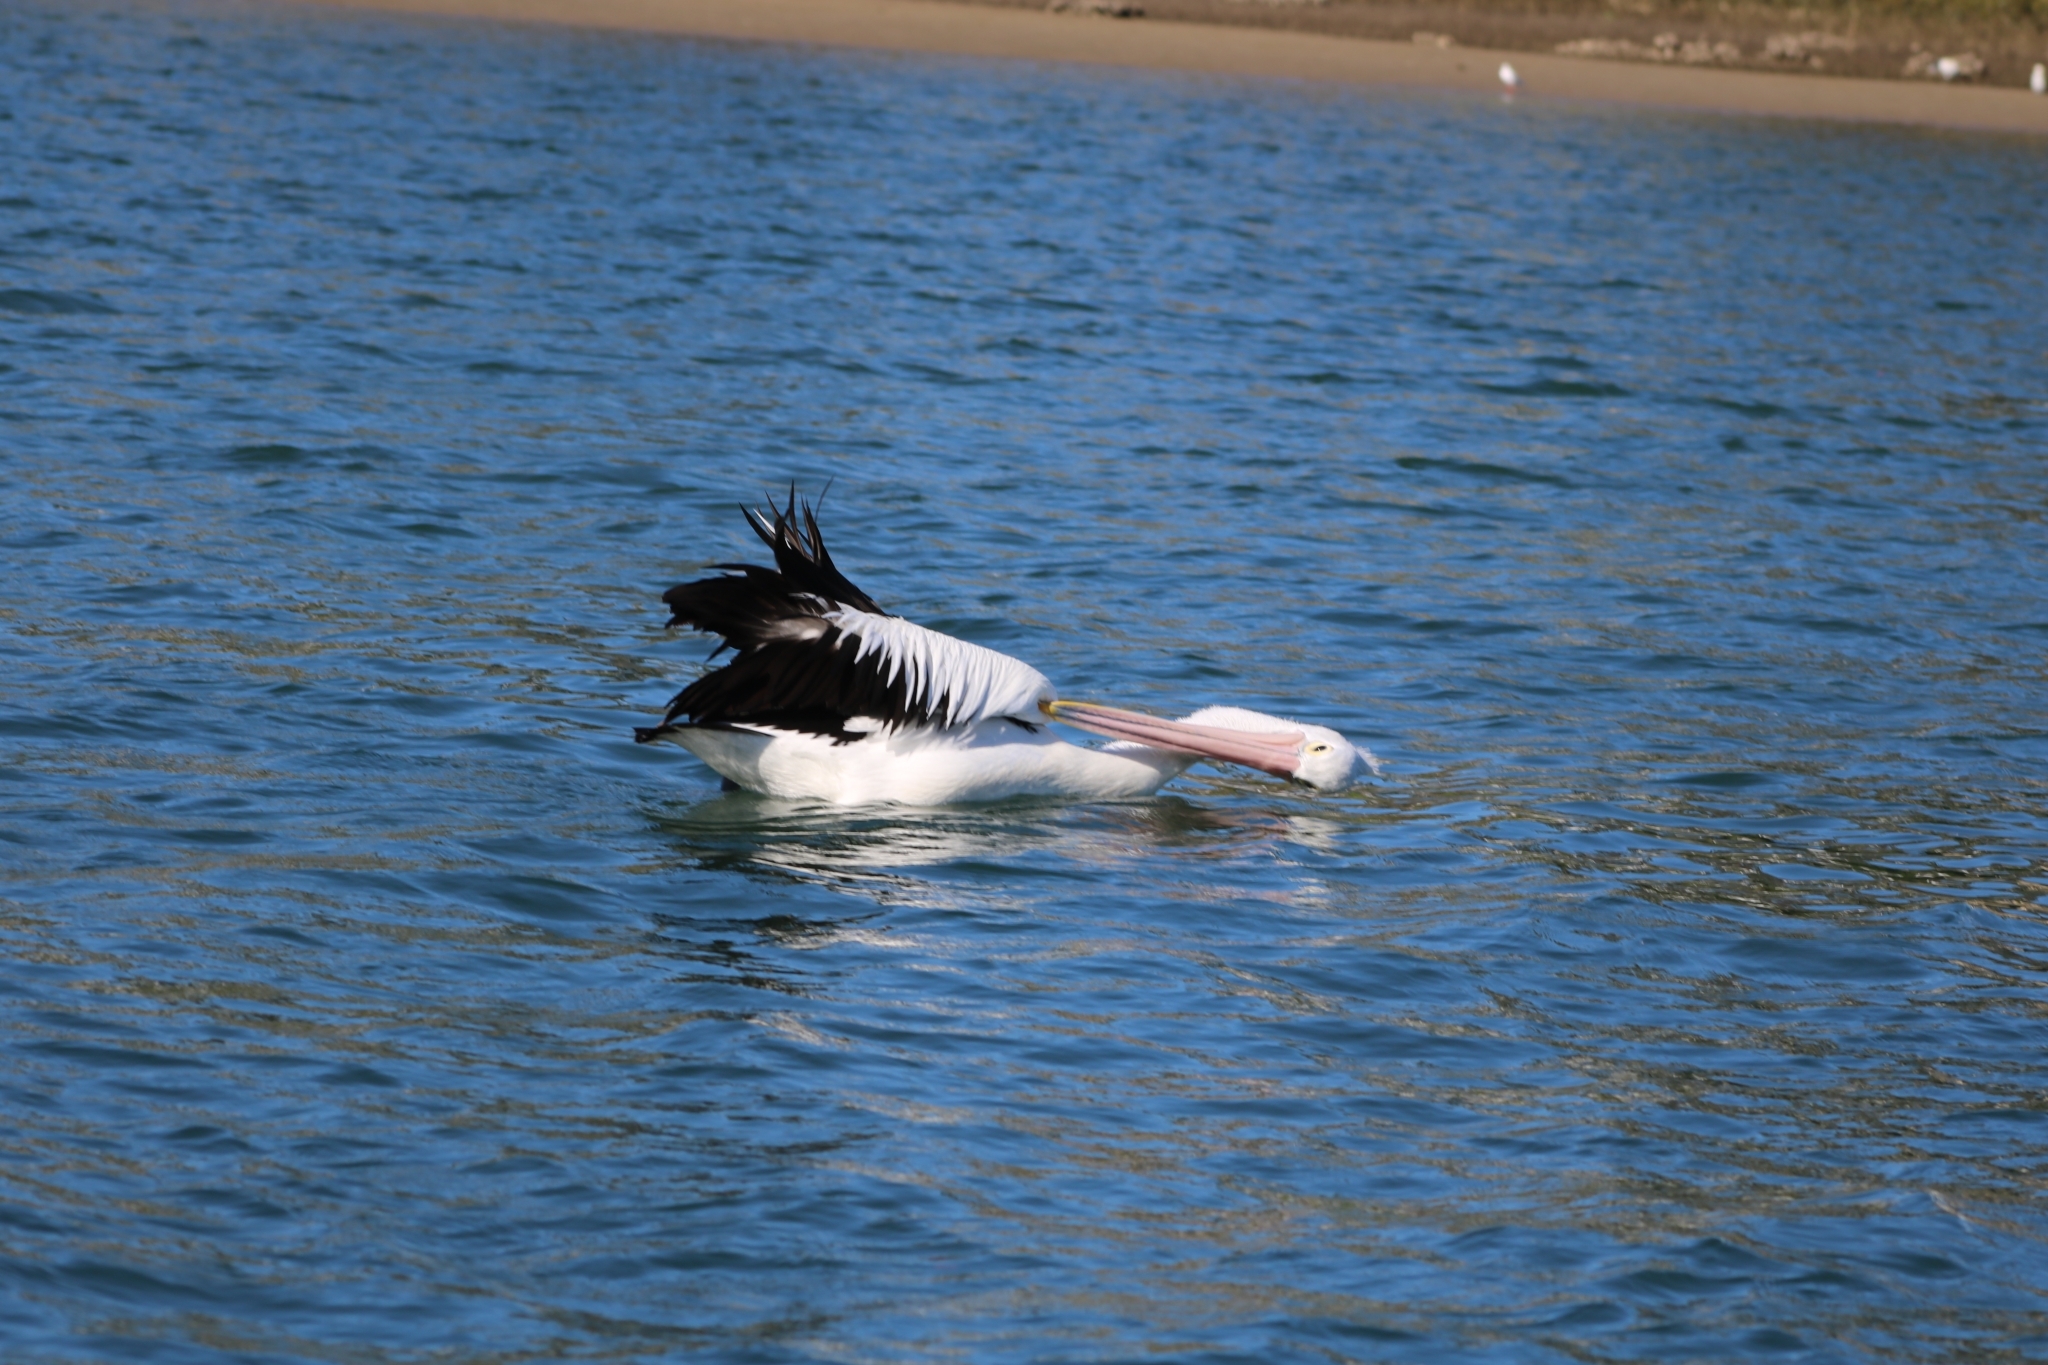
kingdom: Animalia
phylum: Chordata
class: Aves
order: Pelecaniformes
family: Pelecanidae
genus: Pelecanus
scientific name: Pelecanus conspicillatus
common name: Australian pelican
